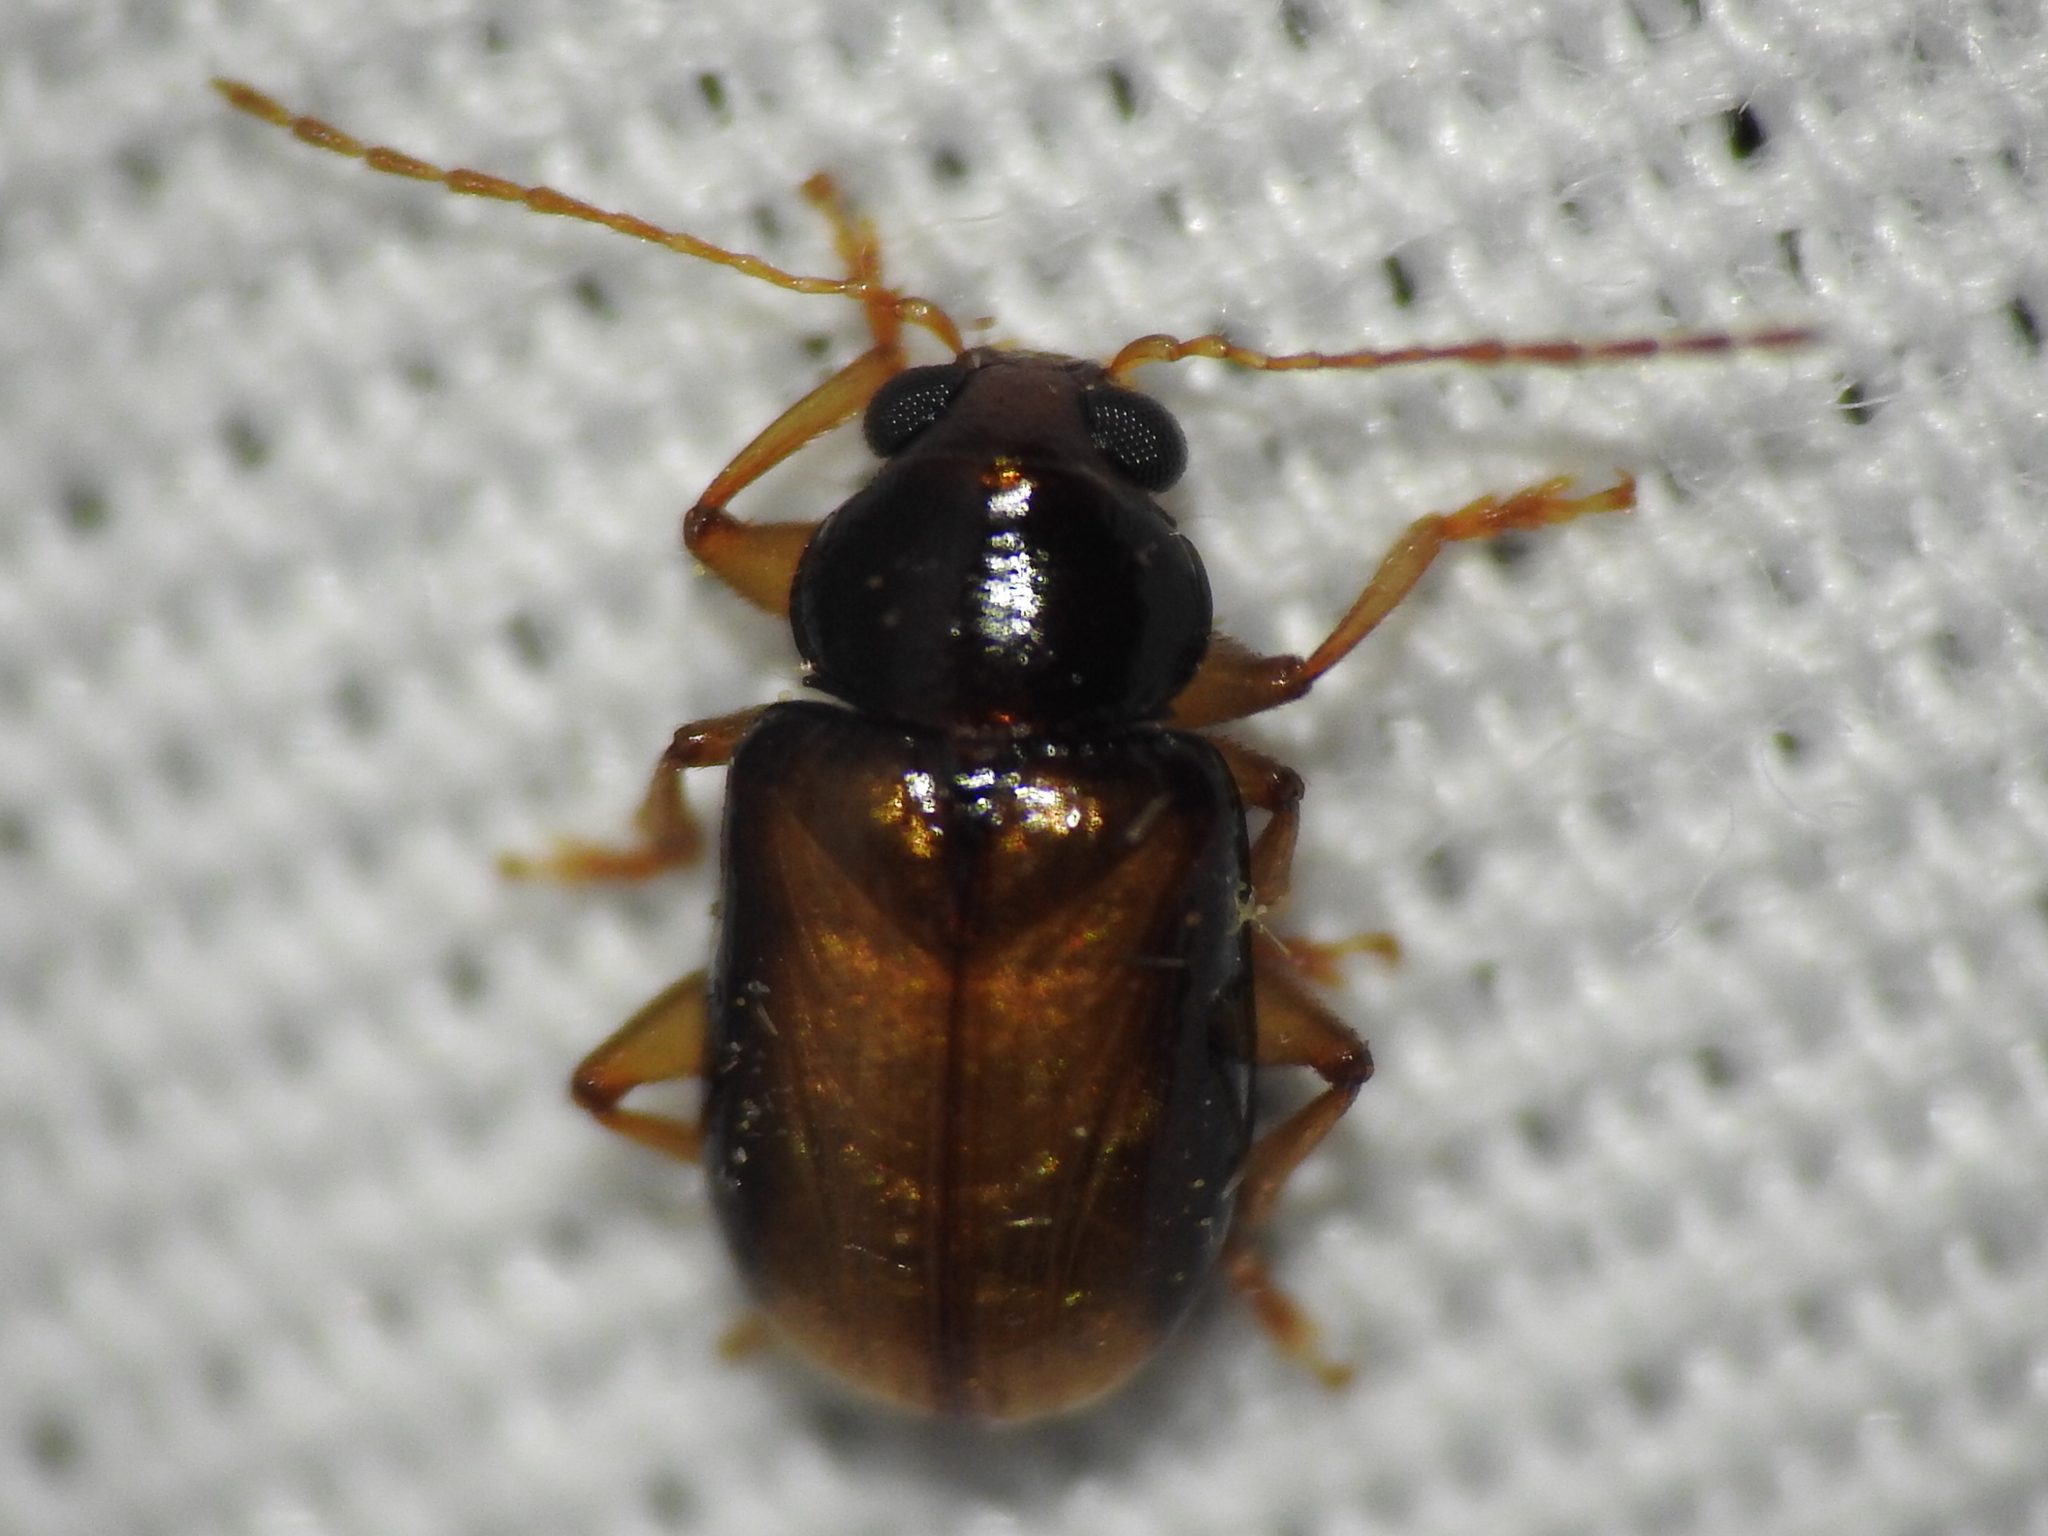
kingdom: Animalia
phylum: Arthropoda
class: Insecta
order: Coleoptera
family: Chrysomelidae
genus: Metachroma
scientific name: Metachroma luridum
